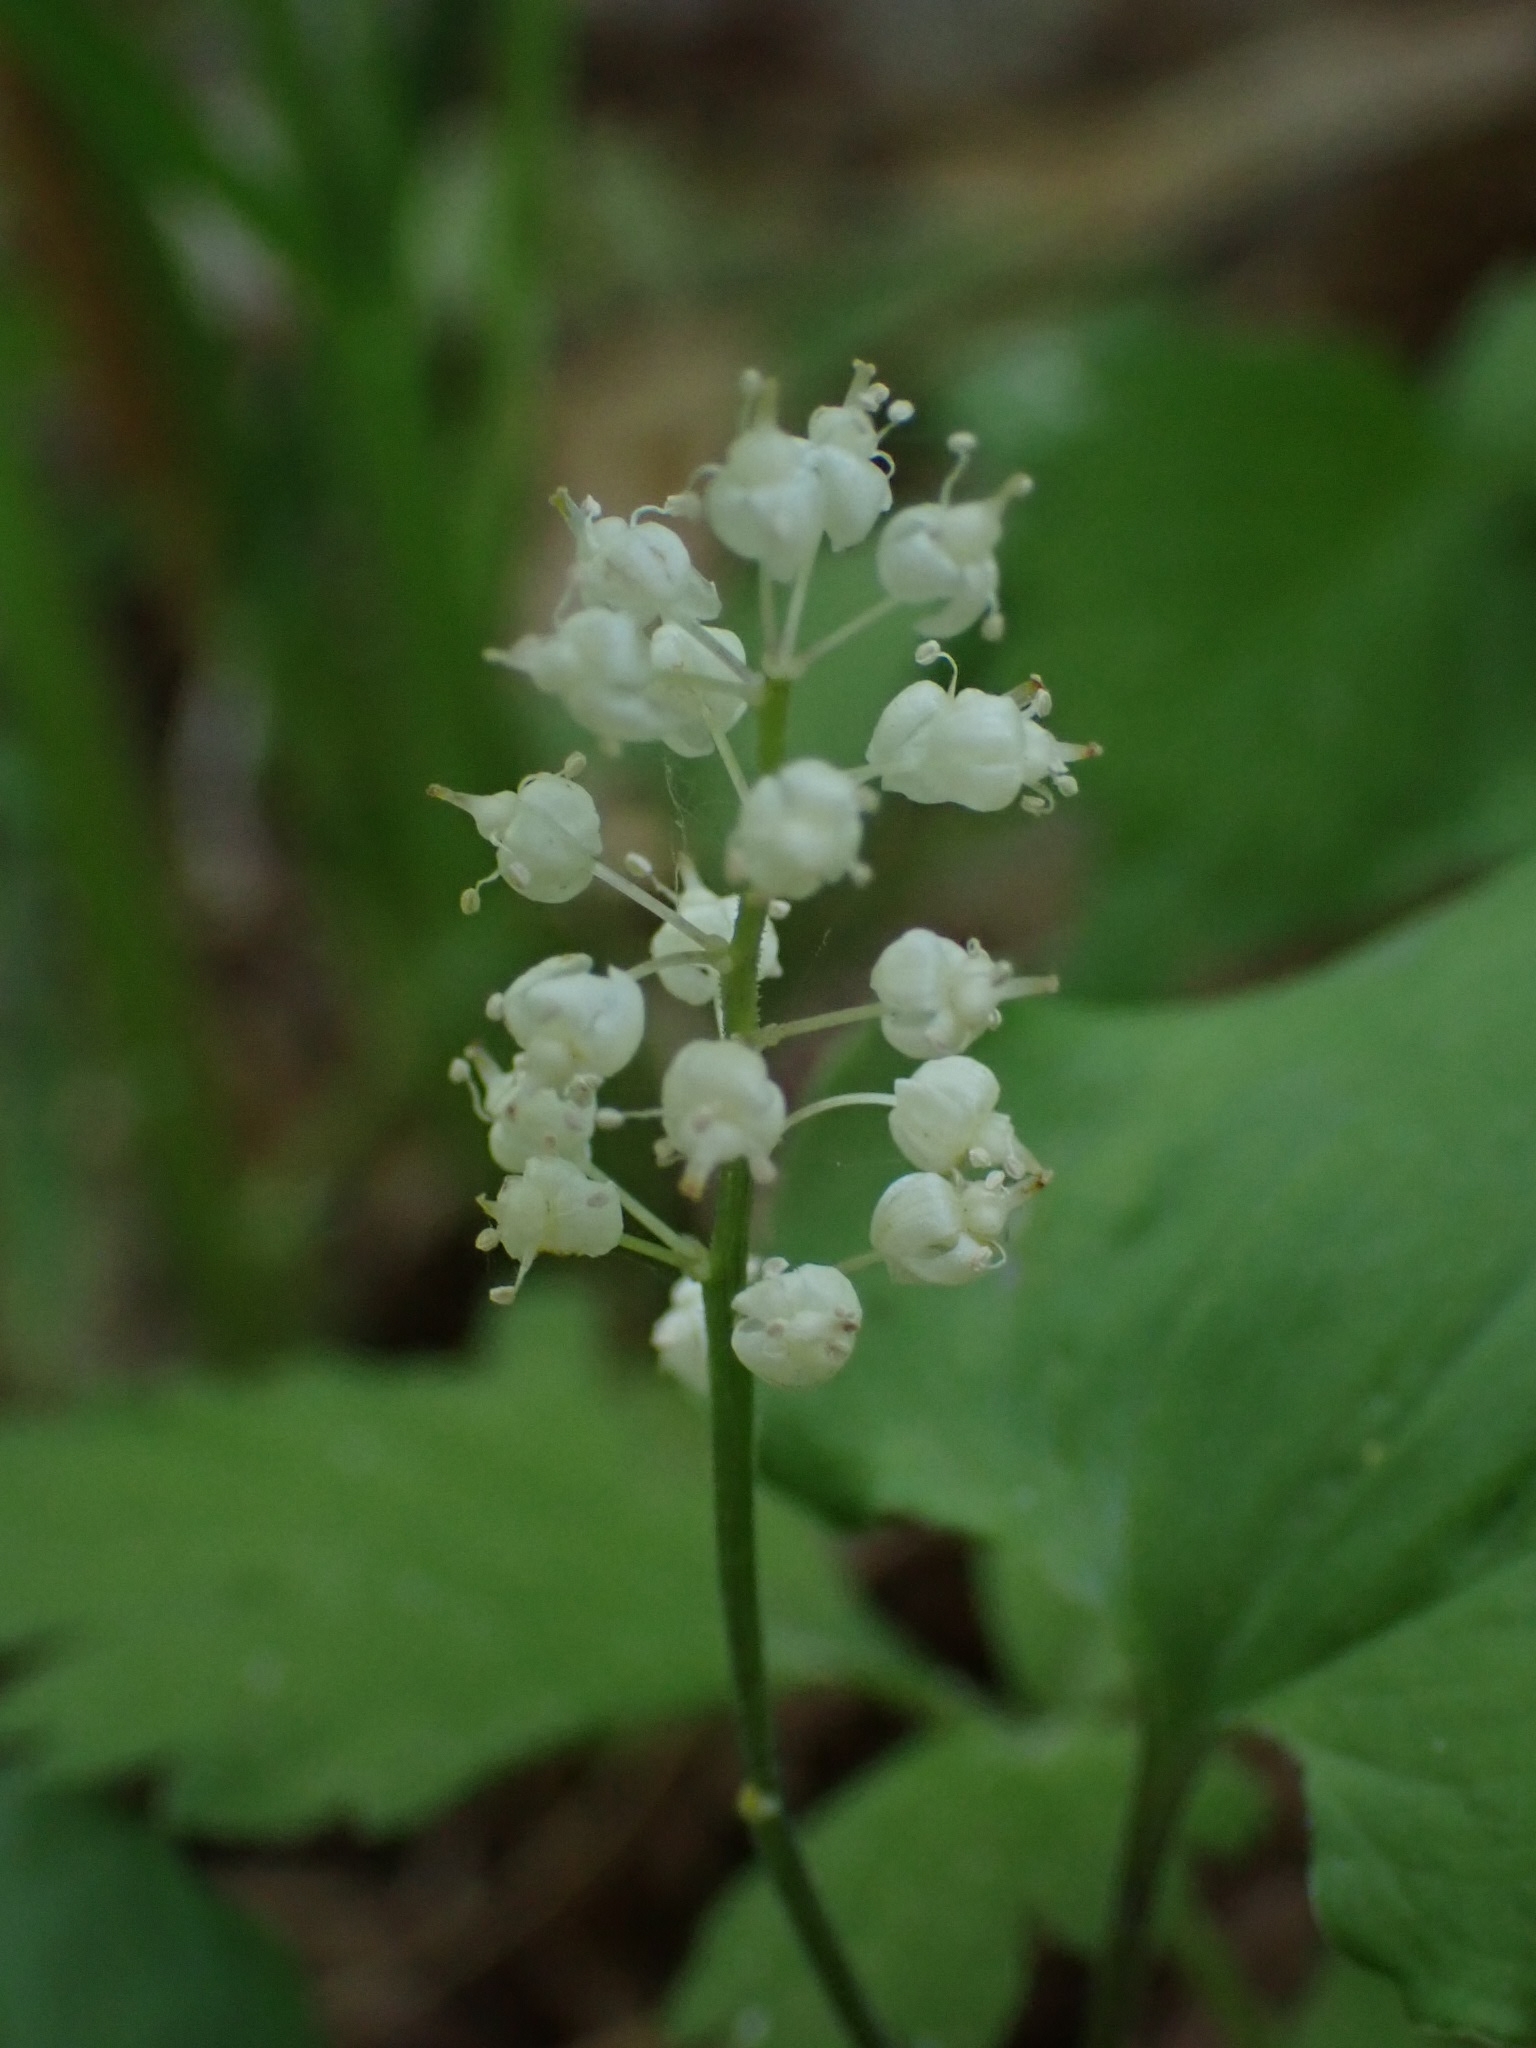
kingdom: Plantae
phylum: Tracheophyta
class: Liliopsida
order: Asparagales
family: Asparagaceae
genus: Maianthemum
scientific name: Maianthemum bifolium
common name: May lily
